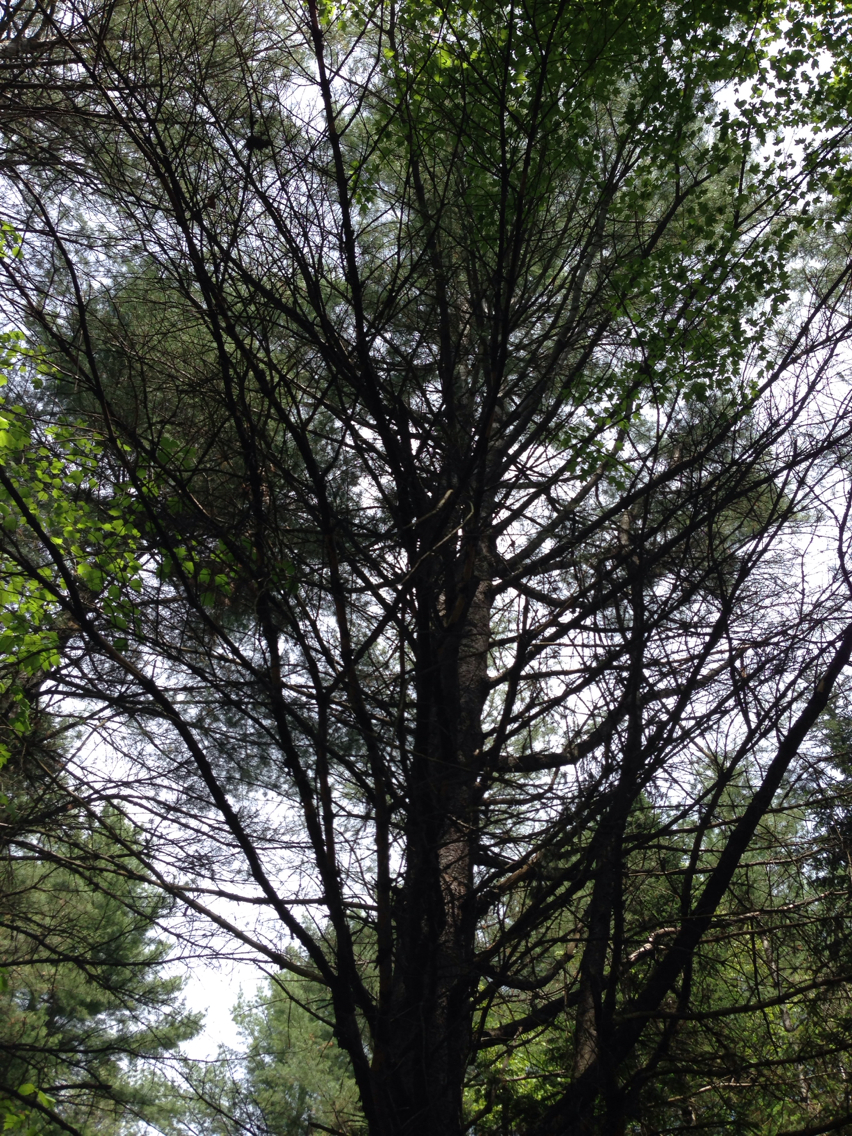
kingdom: Plantae
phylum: Tracheophyta
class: Pinopsida
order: Pinales
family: Pinaceae
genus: Pinus
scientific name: Pinus strobus
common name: Weymouth pine
